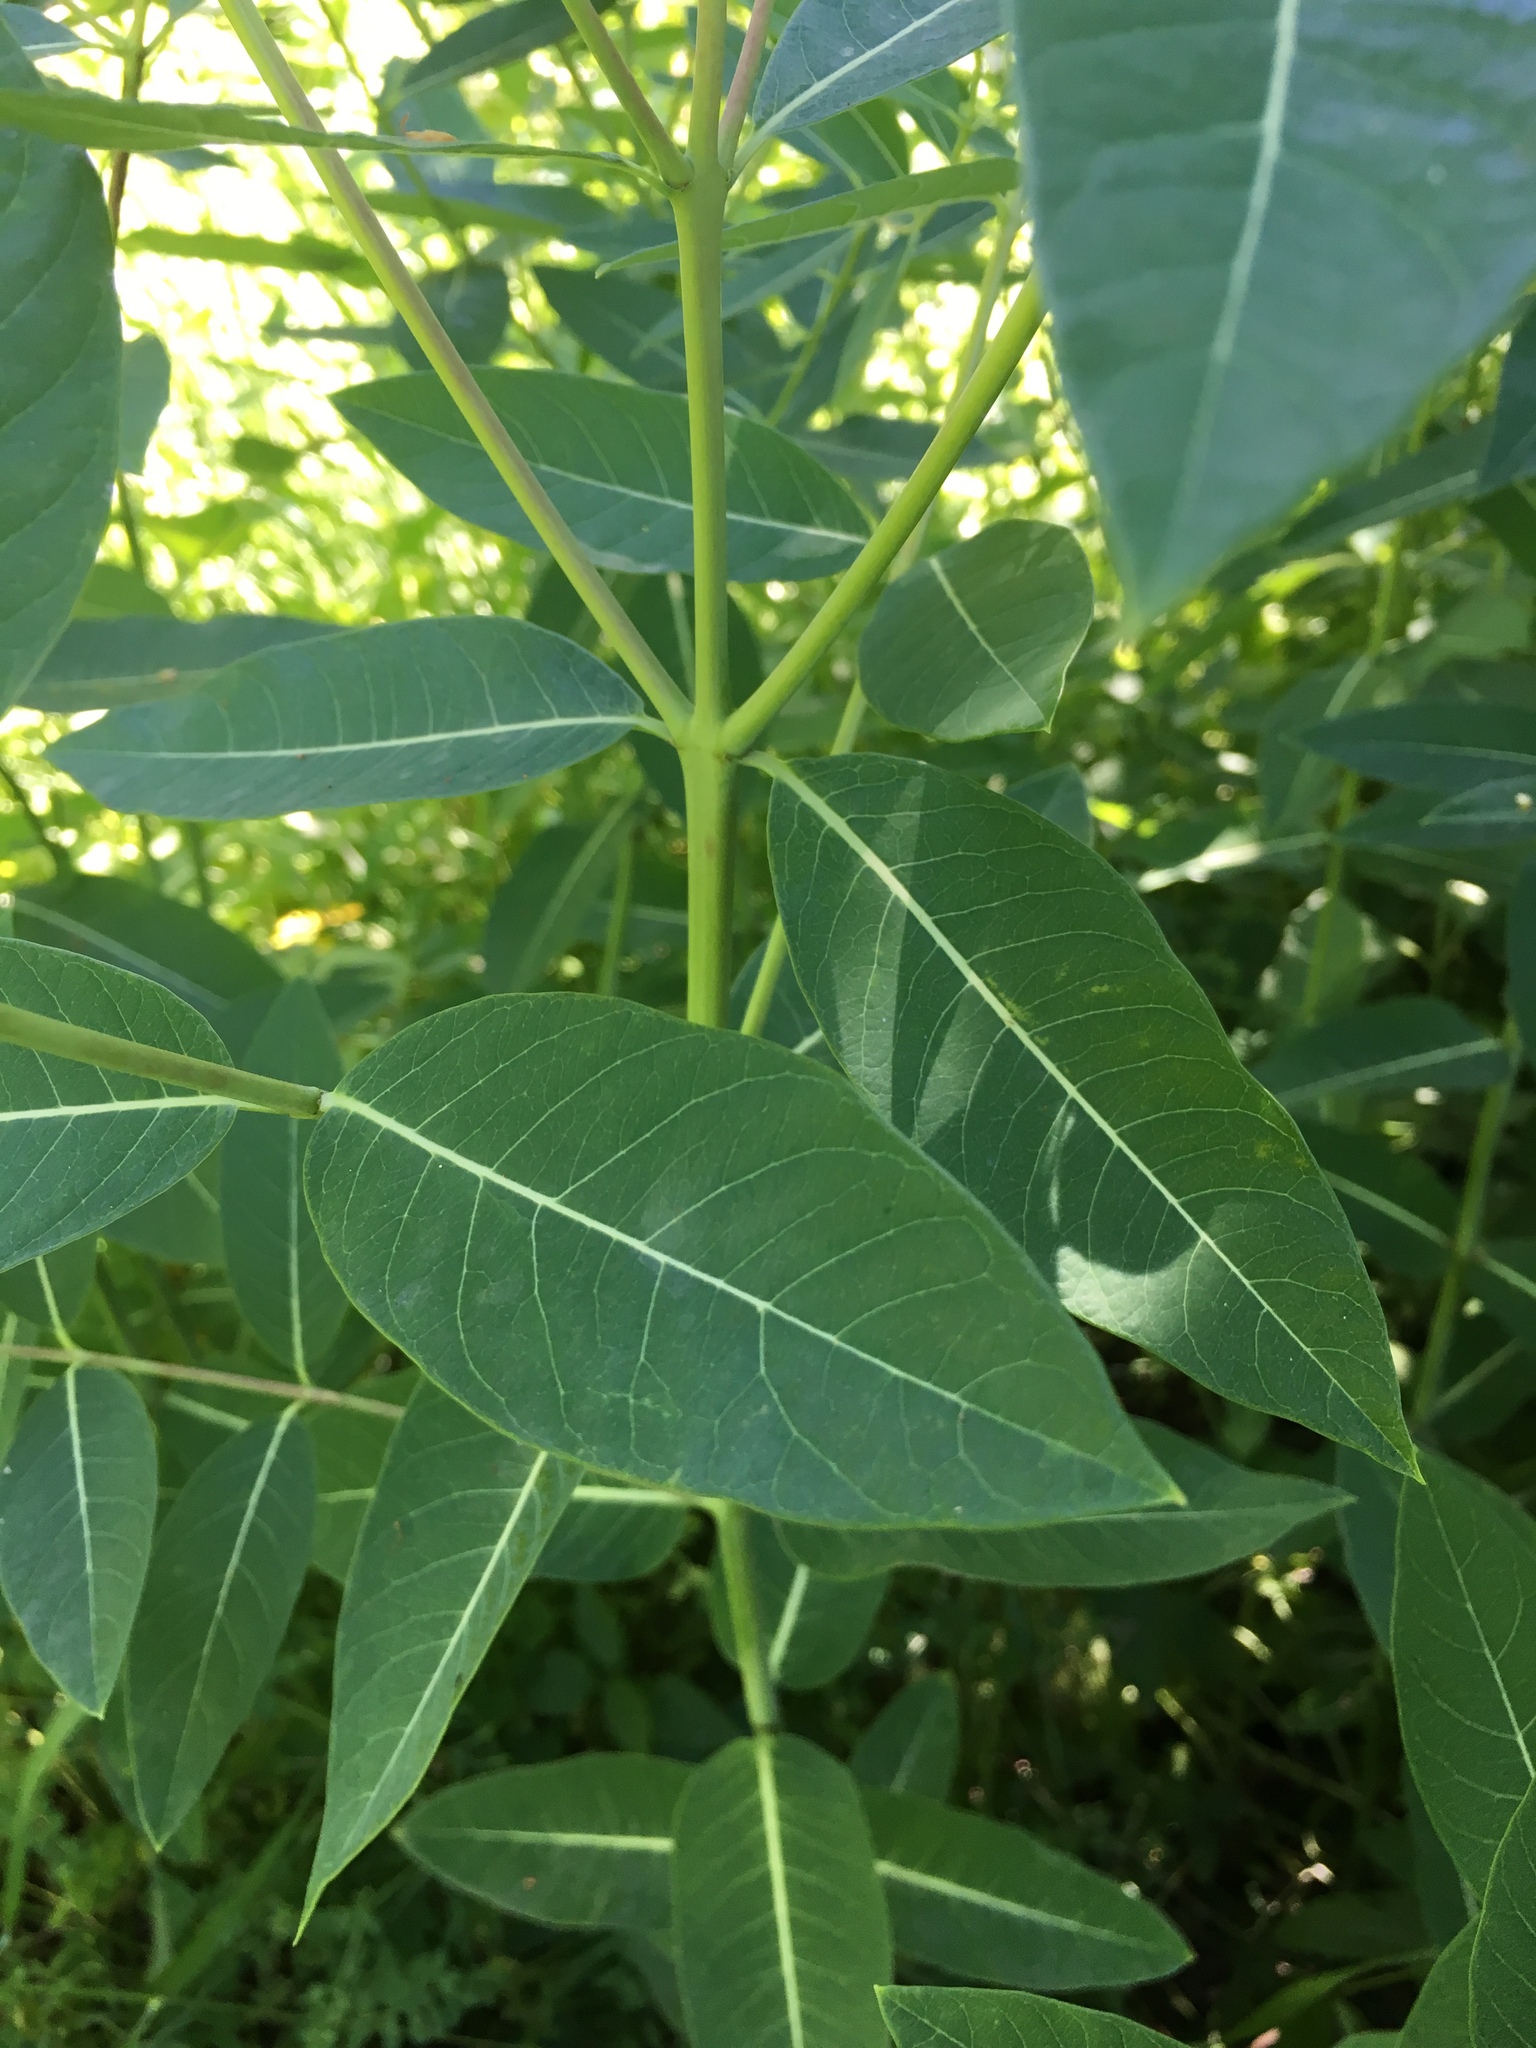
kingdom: Plantae
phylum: Tracheophyta
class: Magnoliopsida
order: Gentianales
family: Apocynaceae
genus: Apocynum
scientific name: Apocynum cannabinum
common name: Hemp dogbane
